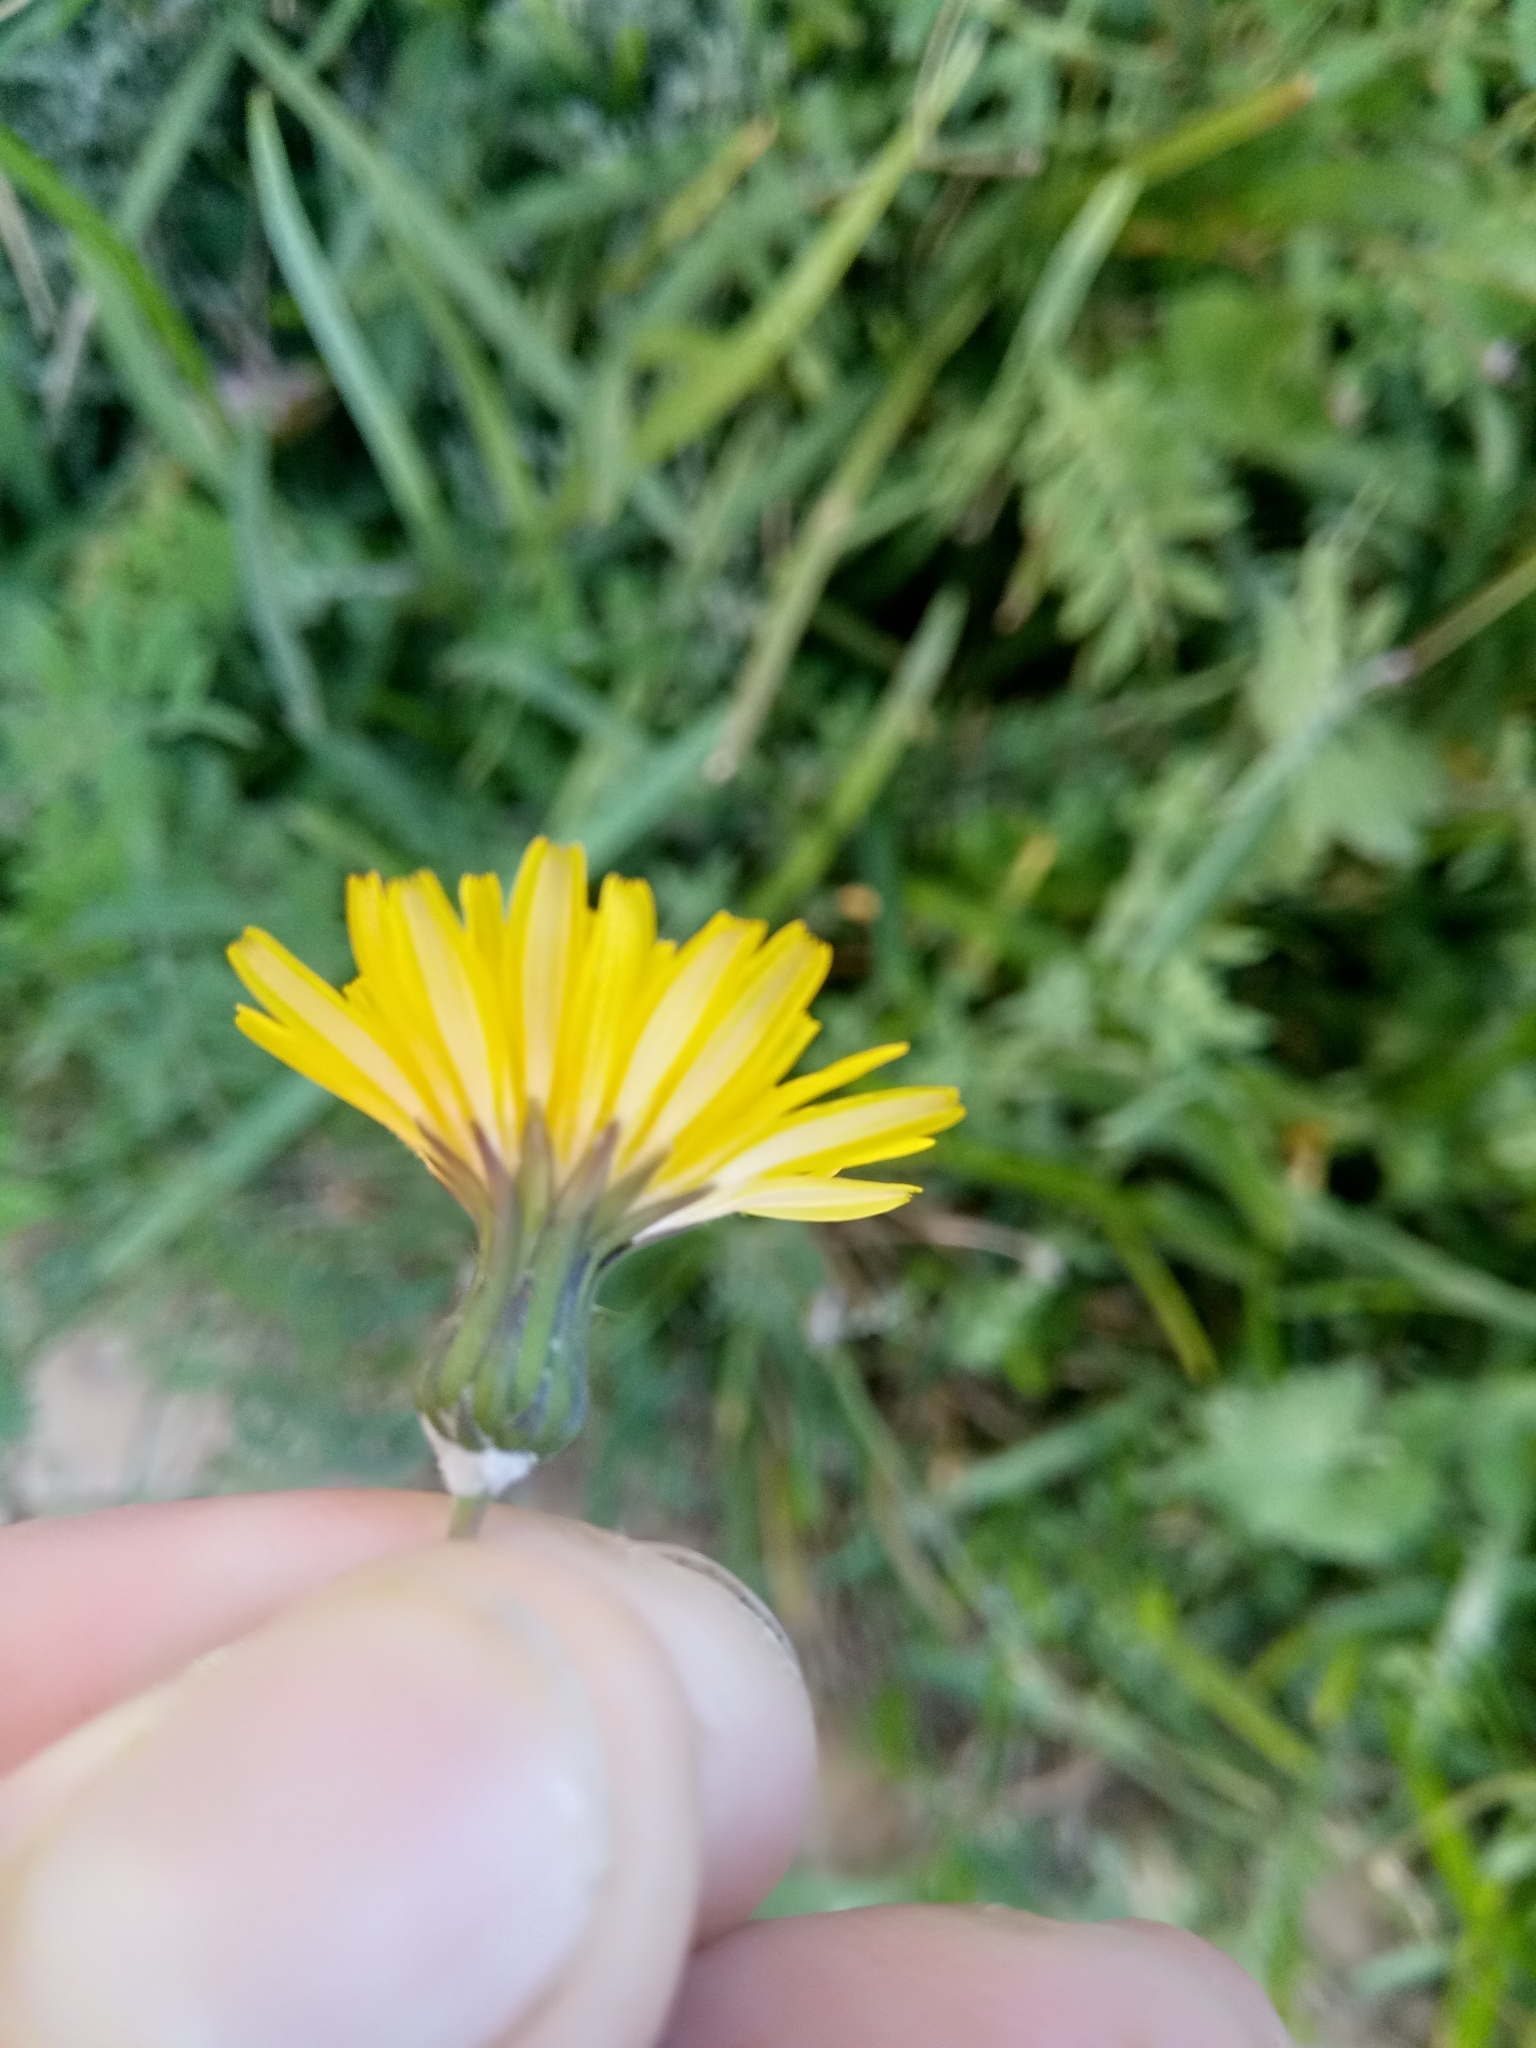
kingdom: Plantae
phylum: Tracheophyta
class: Magnoliopsida
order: Asterales
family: Asteraceae
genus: Sonchus
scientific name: Sonchus tenerrimus
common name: Clammy sowthistle
